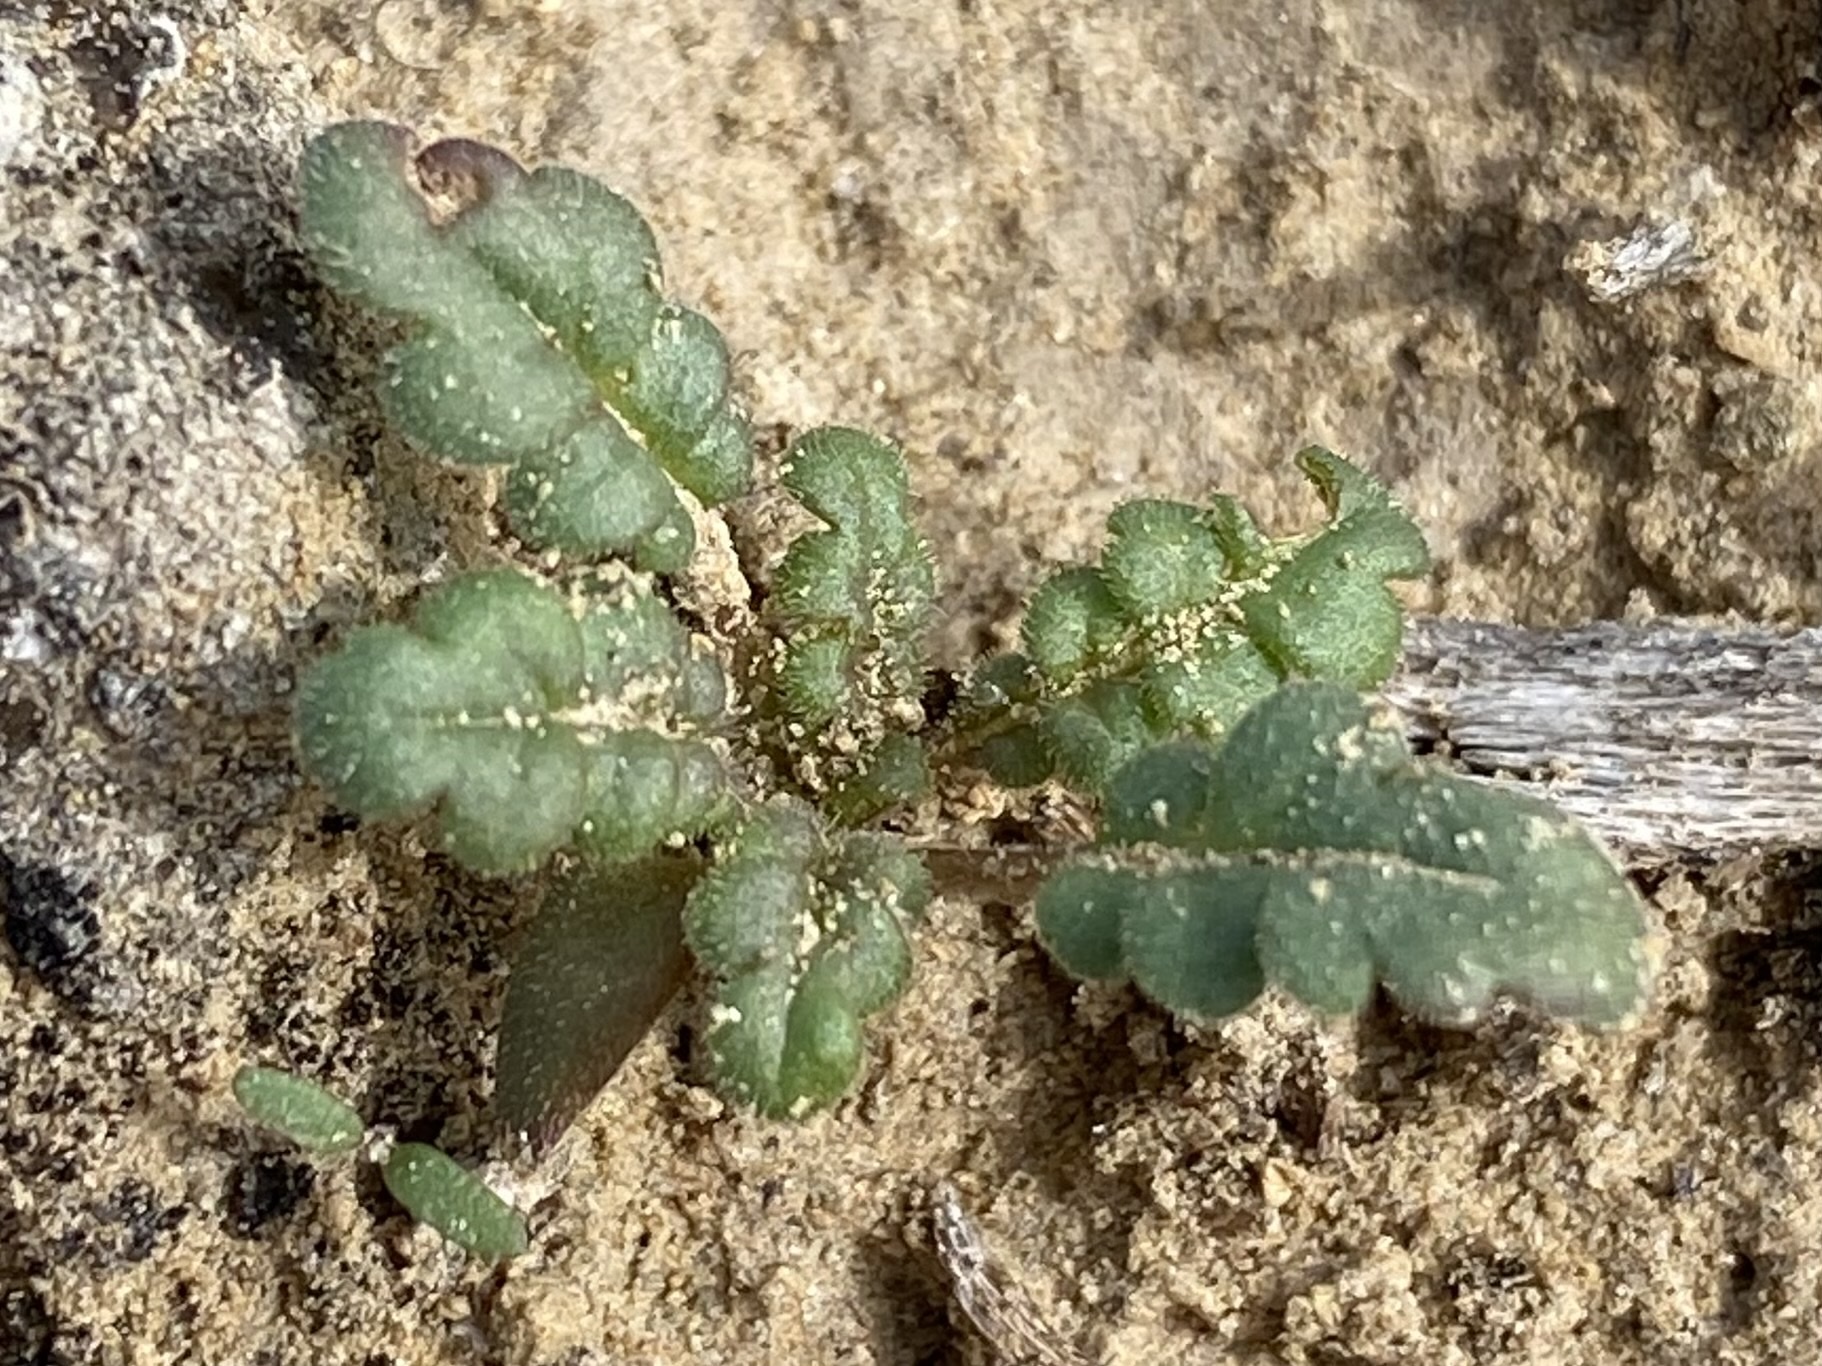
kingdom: Plantae
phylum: Tracheophyta
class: Magnoliopsida
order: Boraginales
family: Hydrophyllaceae
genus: Phacelia
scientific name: Phacelia integrifolia
